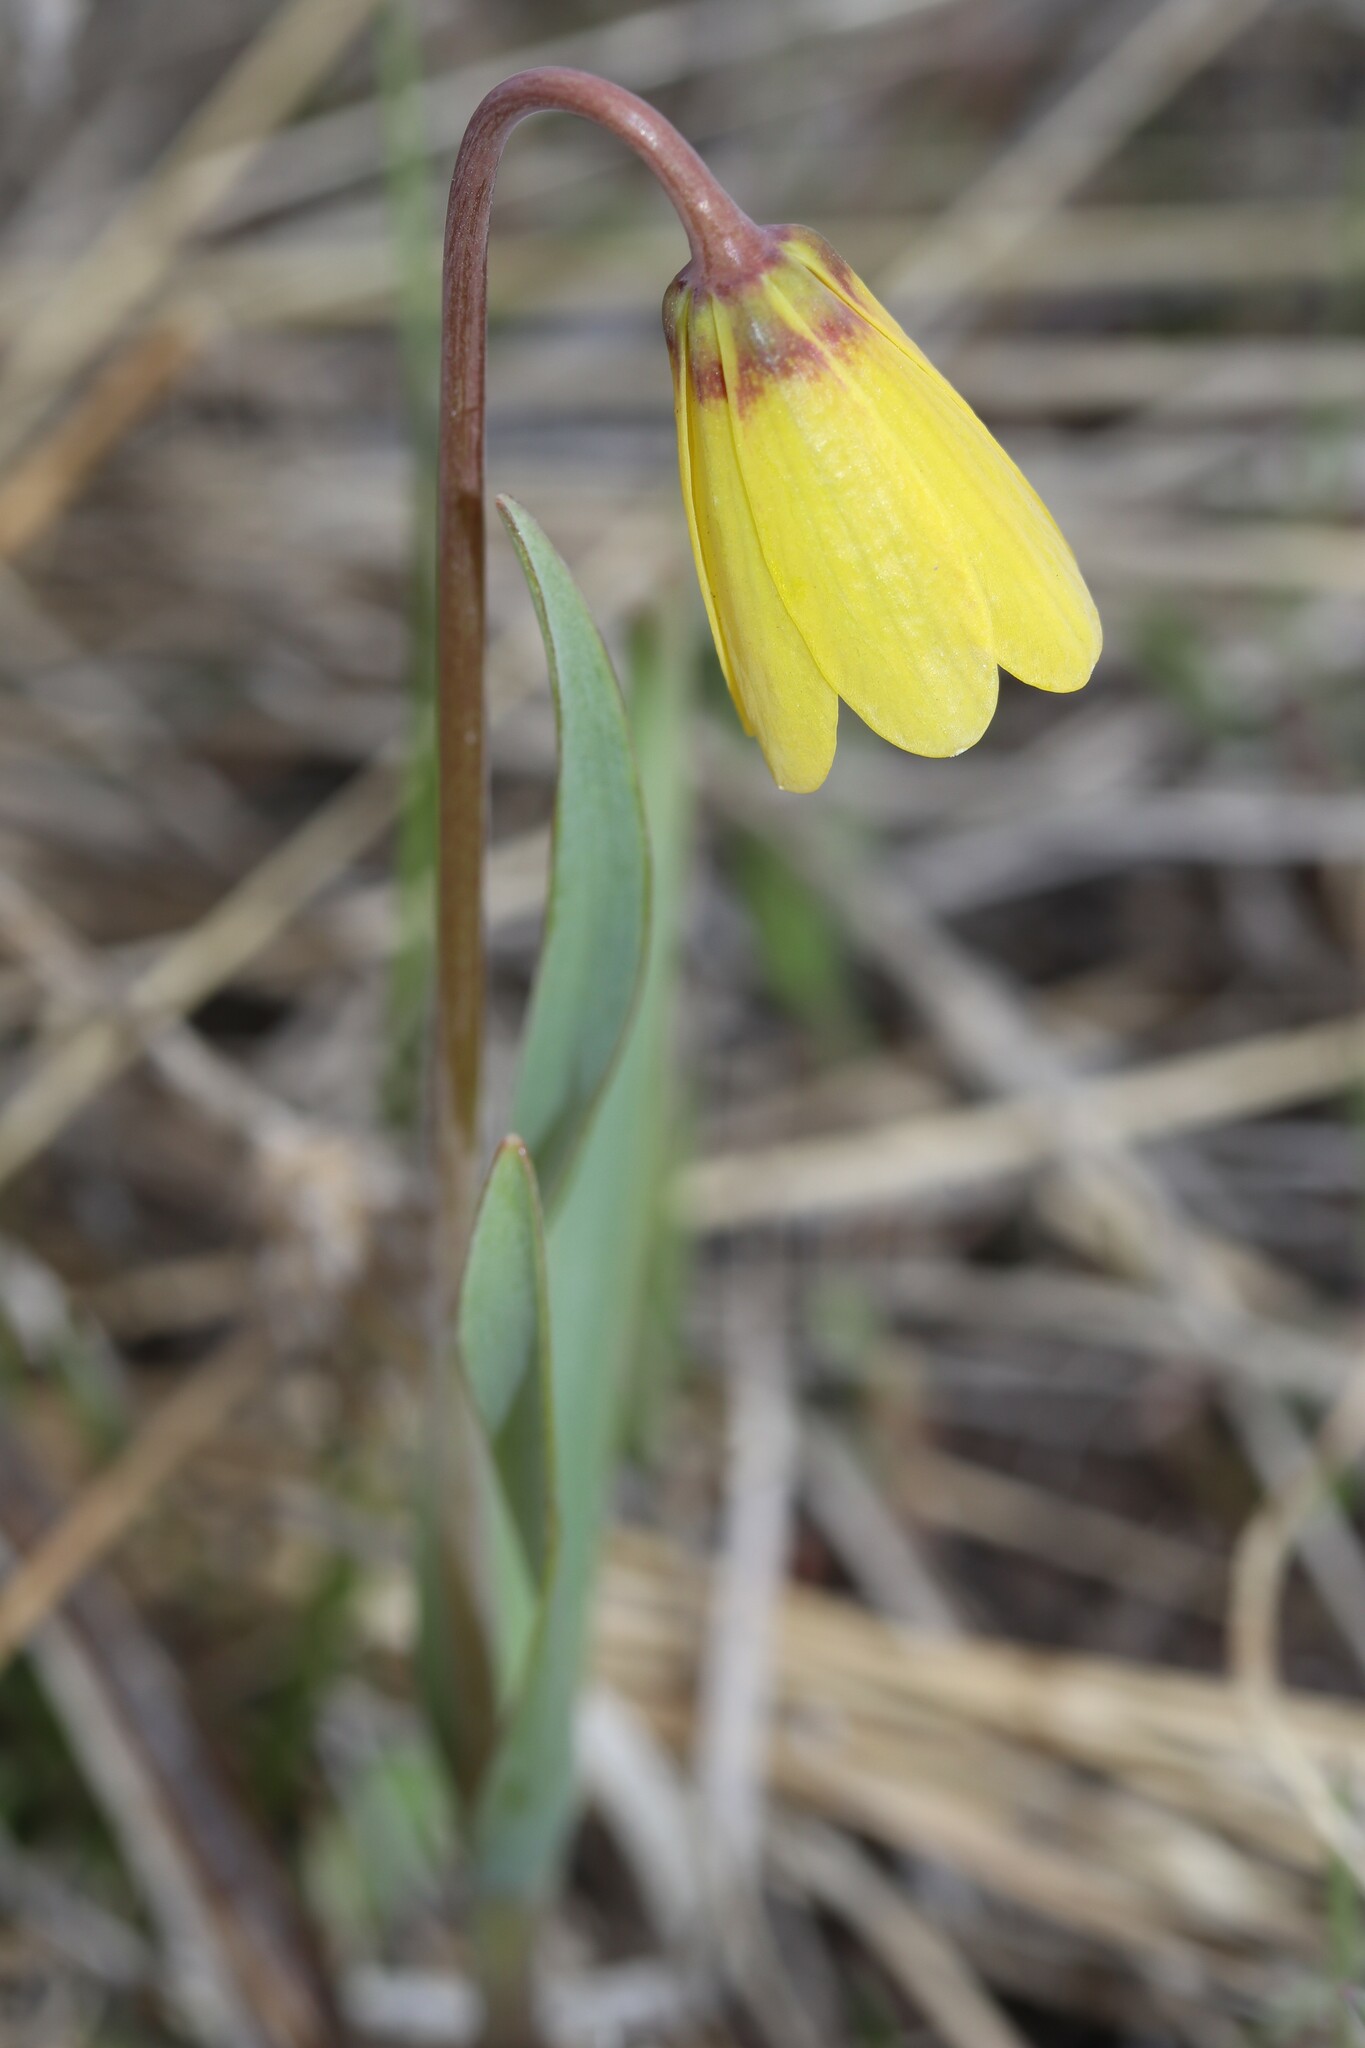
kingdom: Plantae
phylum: Tracheophyta
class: Liliopsida
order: Liliales
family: Liliaceae
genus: Fritillaria
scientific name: Fritillaria pudica
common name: Yellow fritillary
